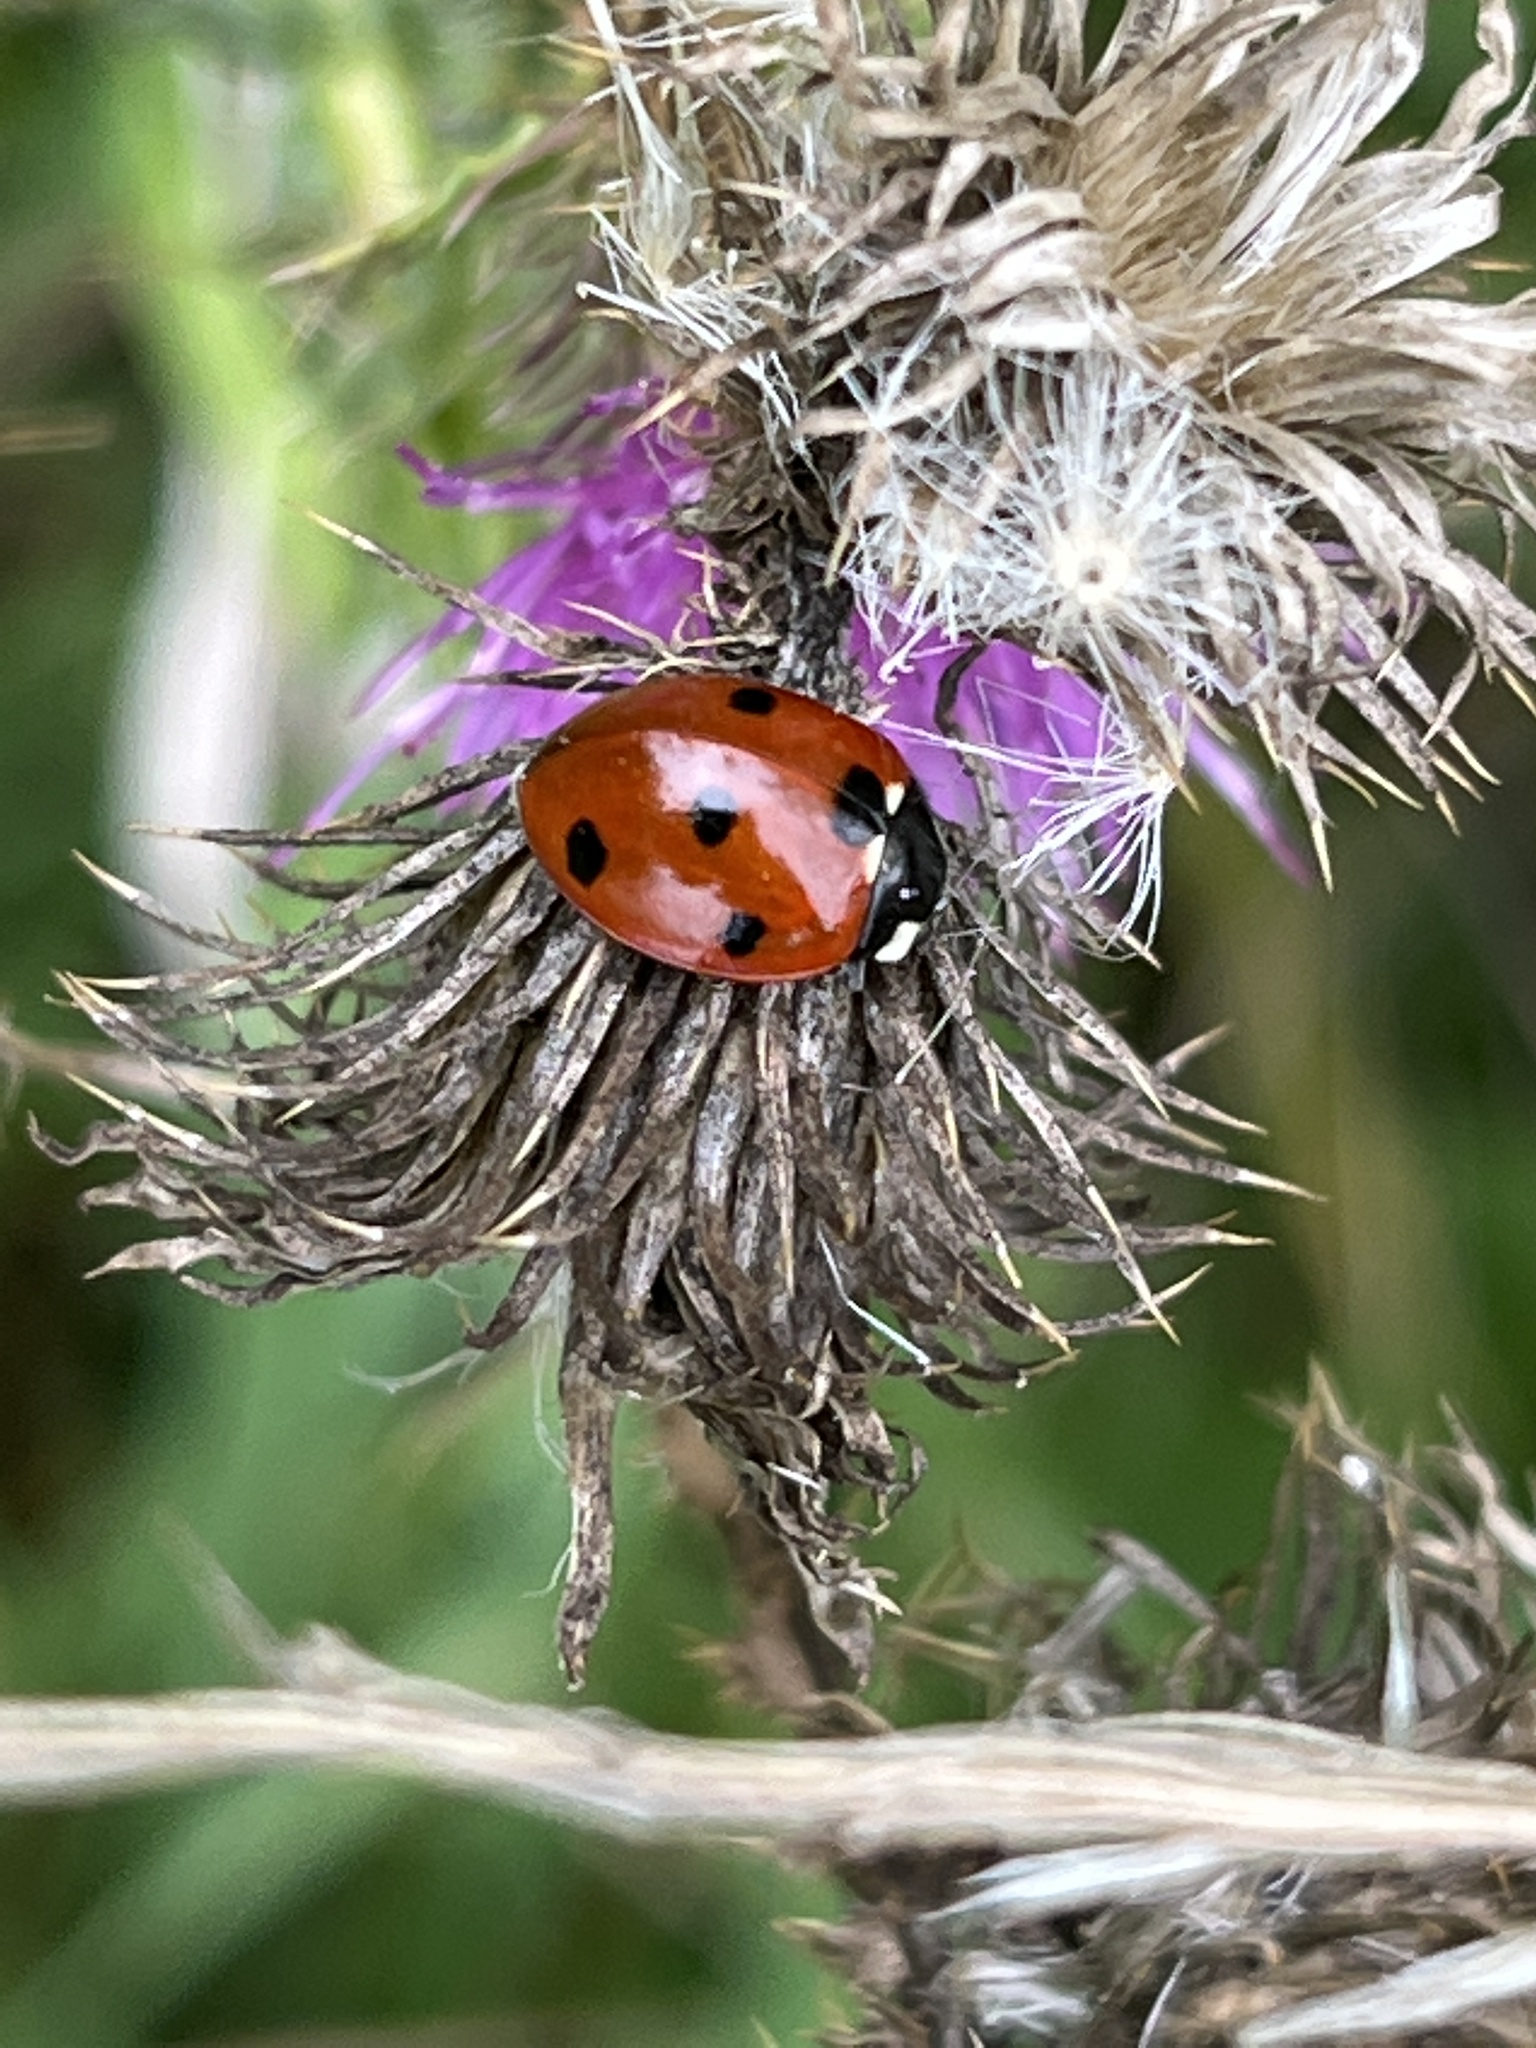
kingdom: Animalia
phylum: Arthropoda
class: Insecta
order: Coleoptera
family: Coccinellidae
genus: Coccinella
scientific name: Coccinella septempunctata
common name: Sevenspotted lady beetle
